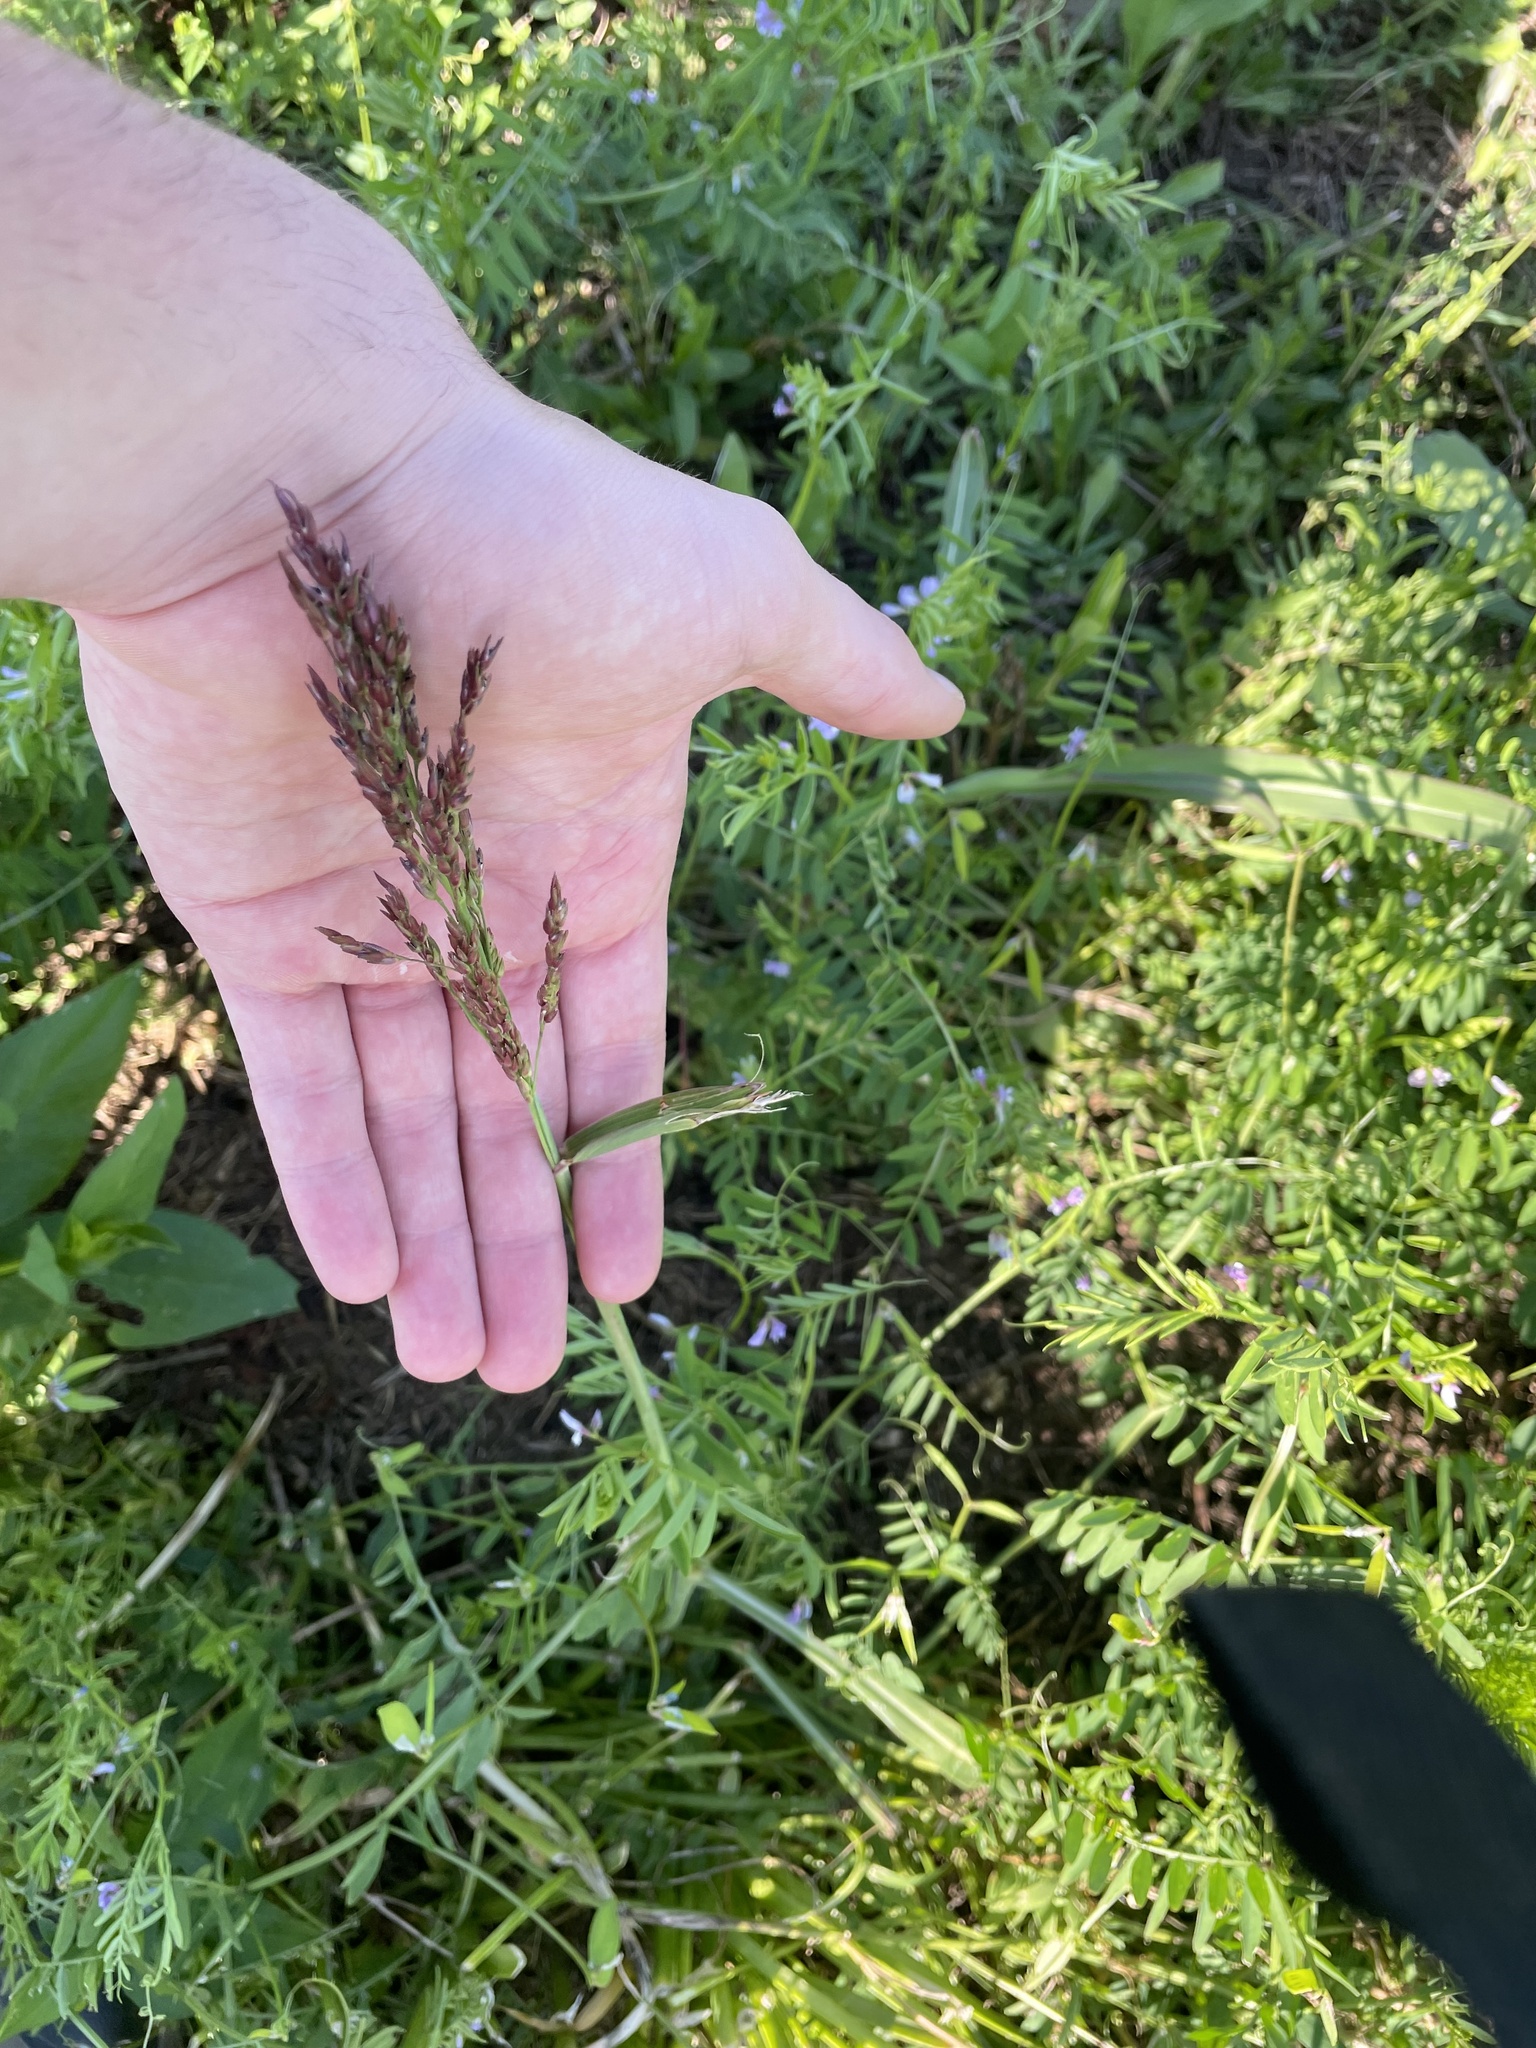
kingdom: Plantae
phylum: Tracheophyta
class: Liliopsida
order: Poales
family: Poaceae
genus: Sorghum
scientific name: Sorghum halepense
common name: Johnson-grass
